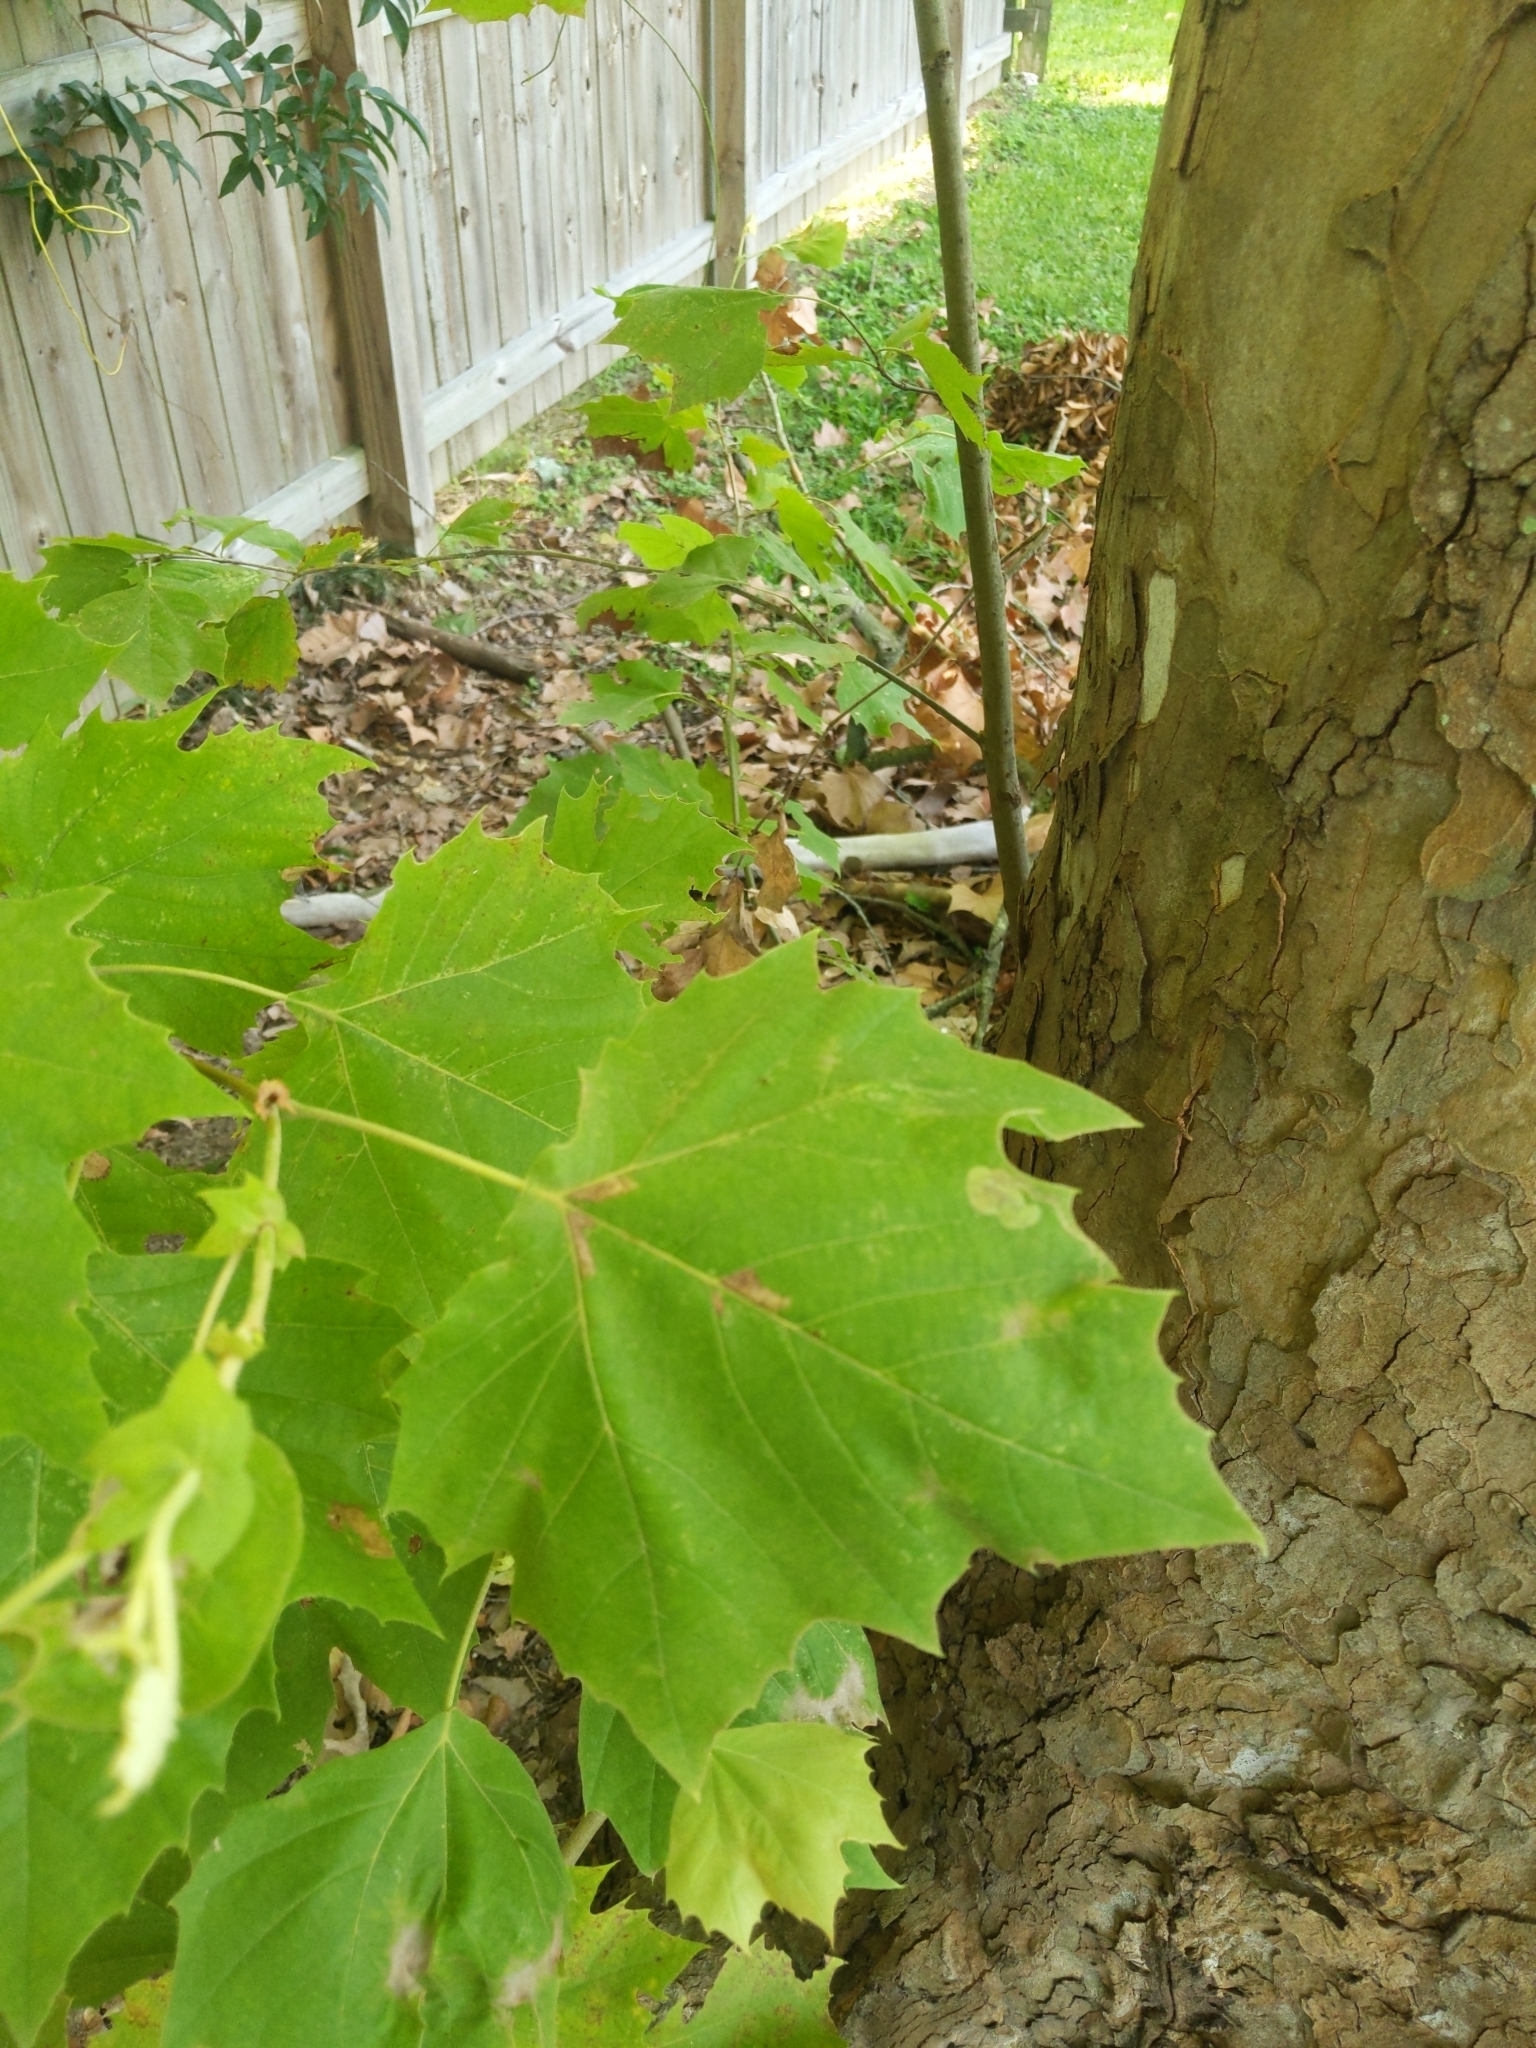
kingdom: Plantae
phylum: Tracheophyta
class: Magnoliopsida
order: Proteales
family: Platanaceae
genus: Platanus
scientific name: Platanus occidentalis
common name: American sycamore
